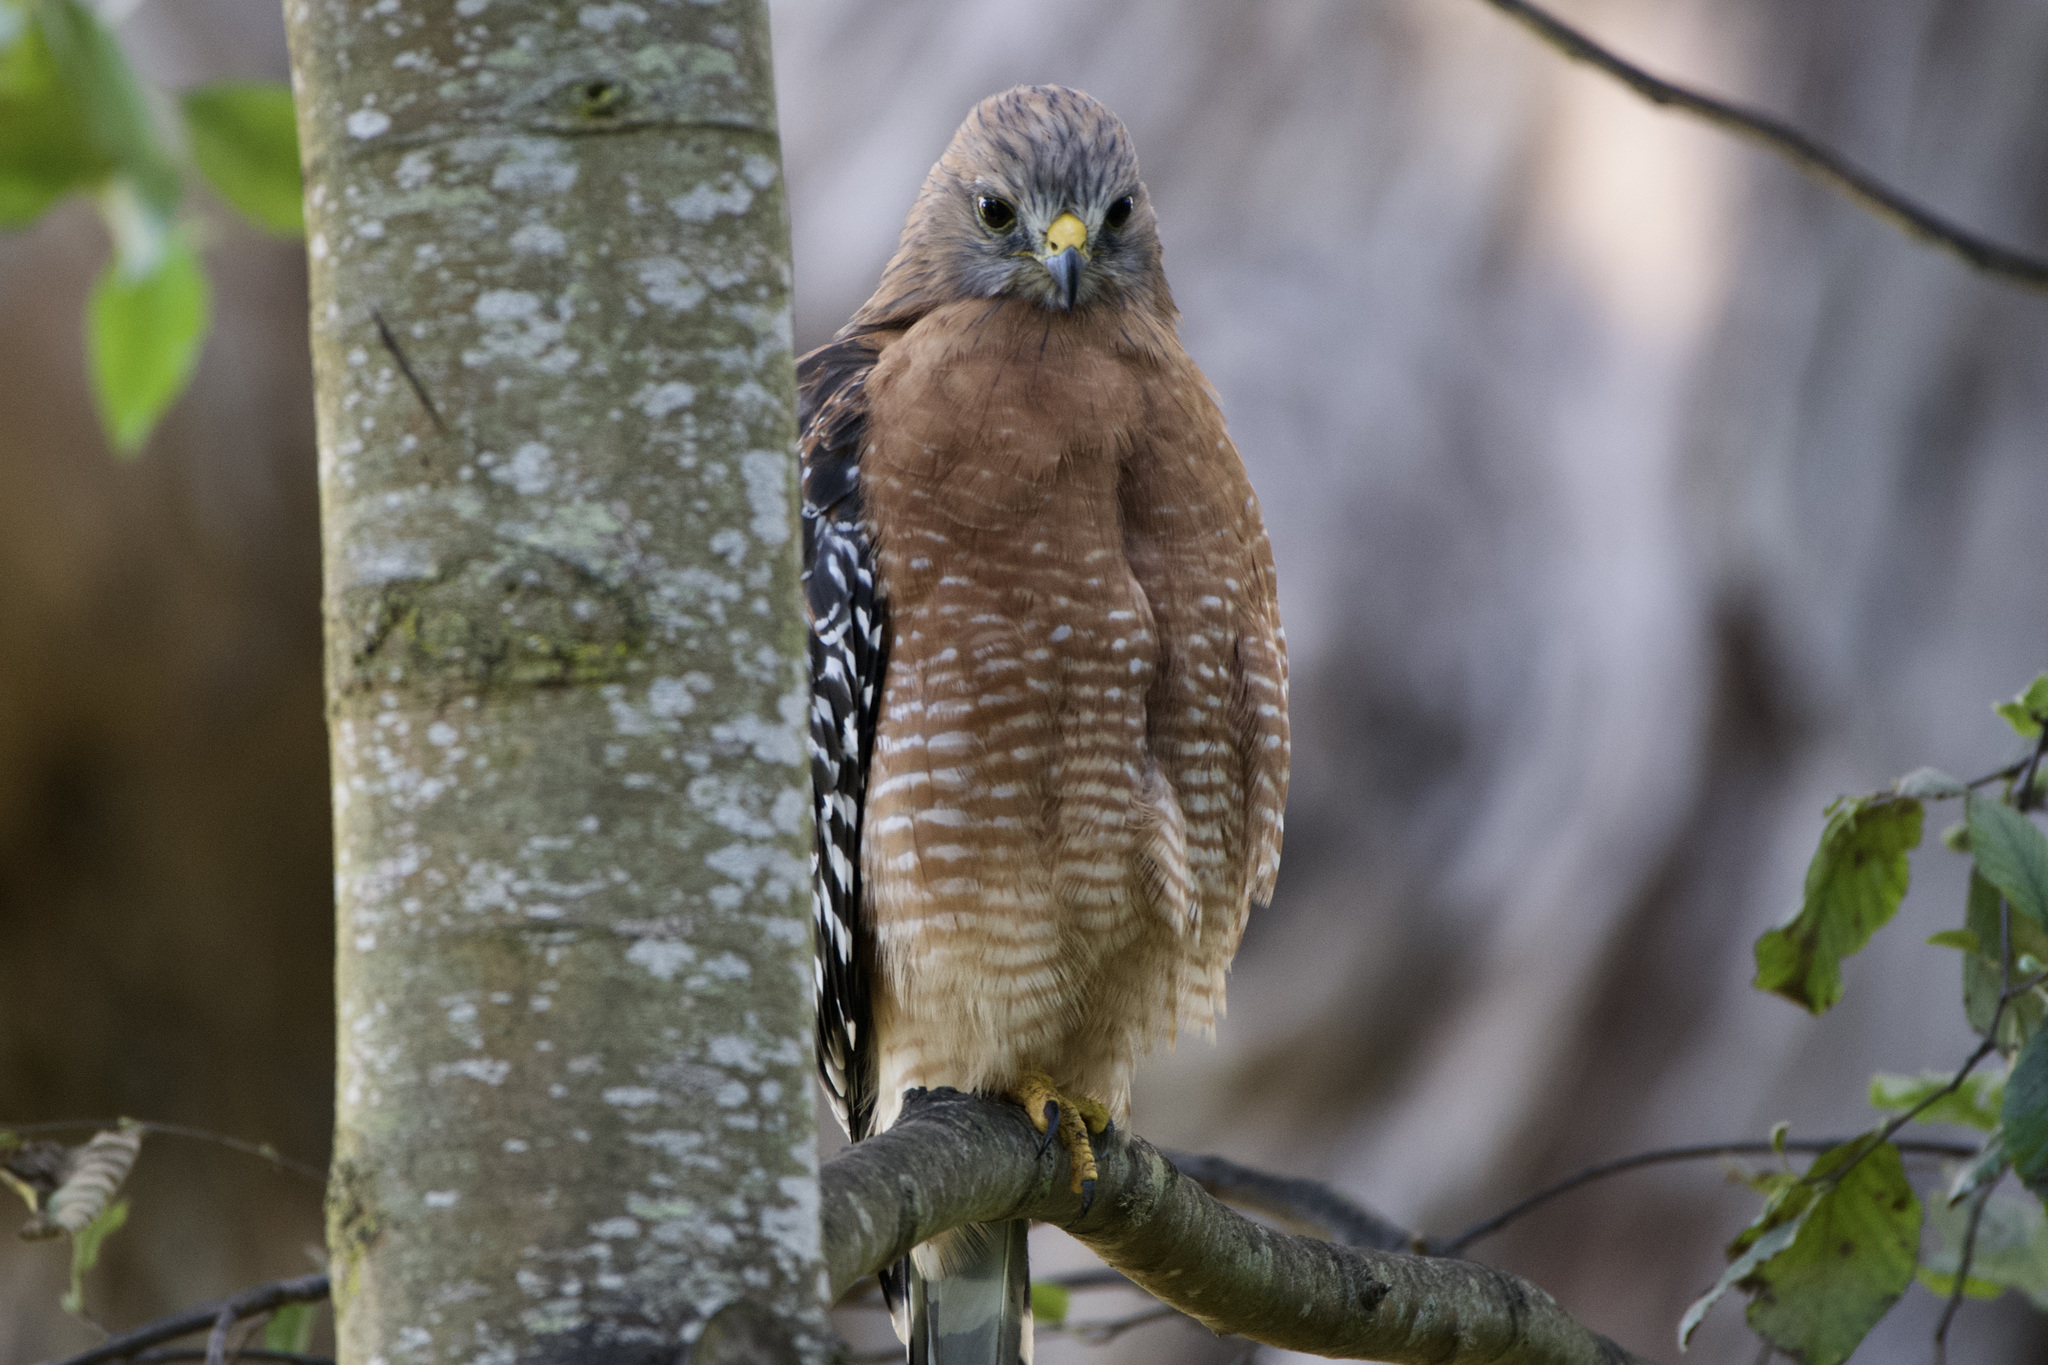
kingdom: Animalia
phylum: Chordata
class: Aves
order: Accipitriformes
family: Accipitridae
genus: Buteo
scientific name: Buteo lineatus
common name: Red-shouldered hawk
